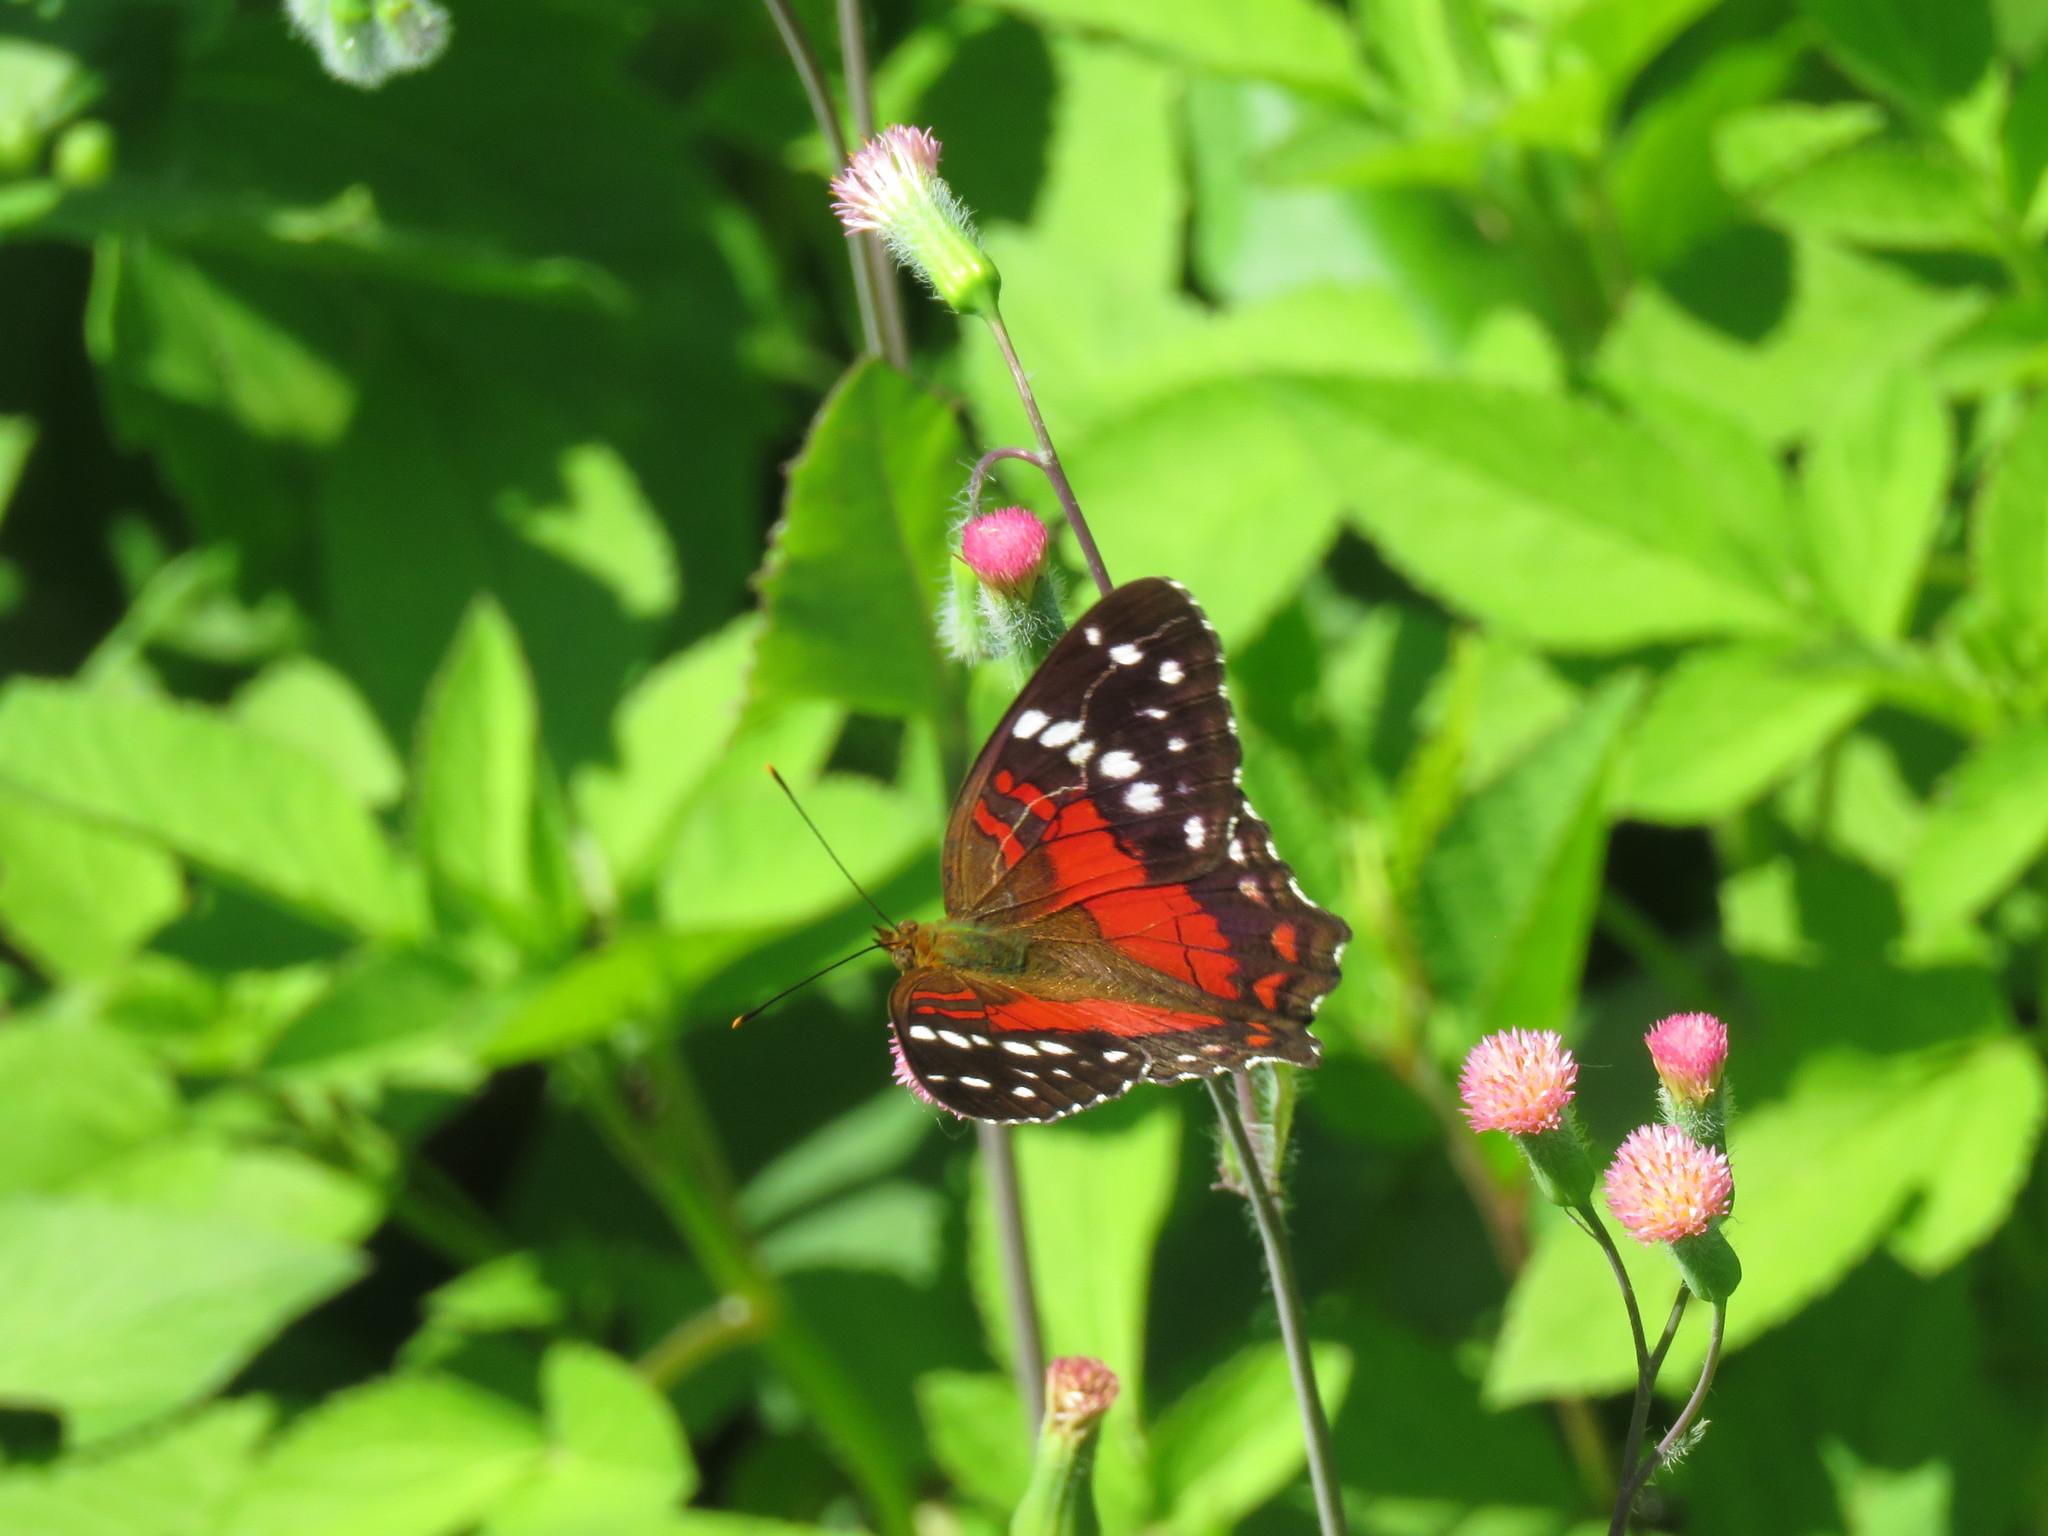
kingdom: Animalia
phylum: Arthropoda
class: Insecta
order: Lepidoptera
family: Nymphalidae
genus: Anartia
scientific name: Anartia amathea
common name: Red peacock
